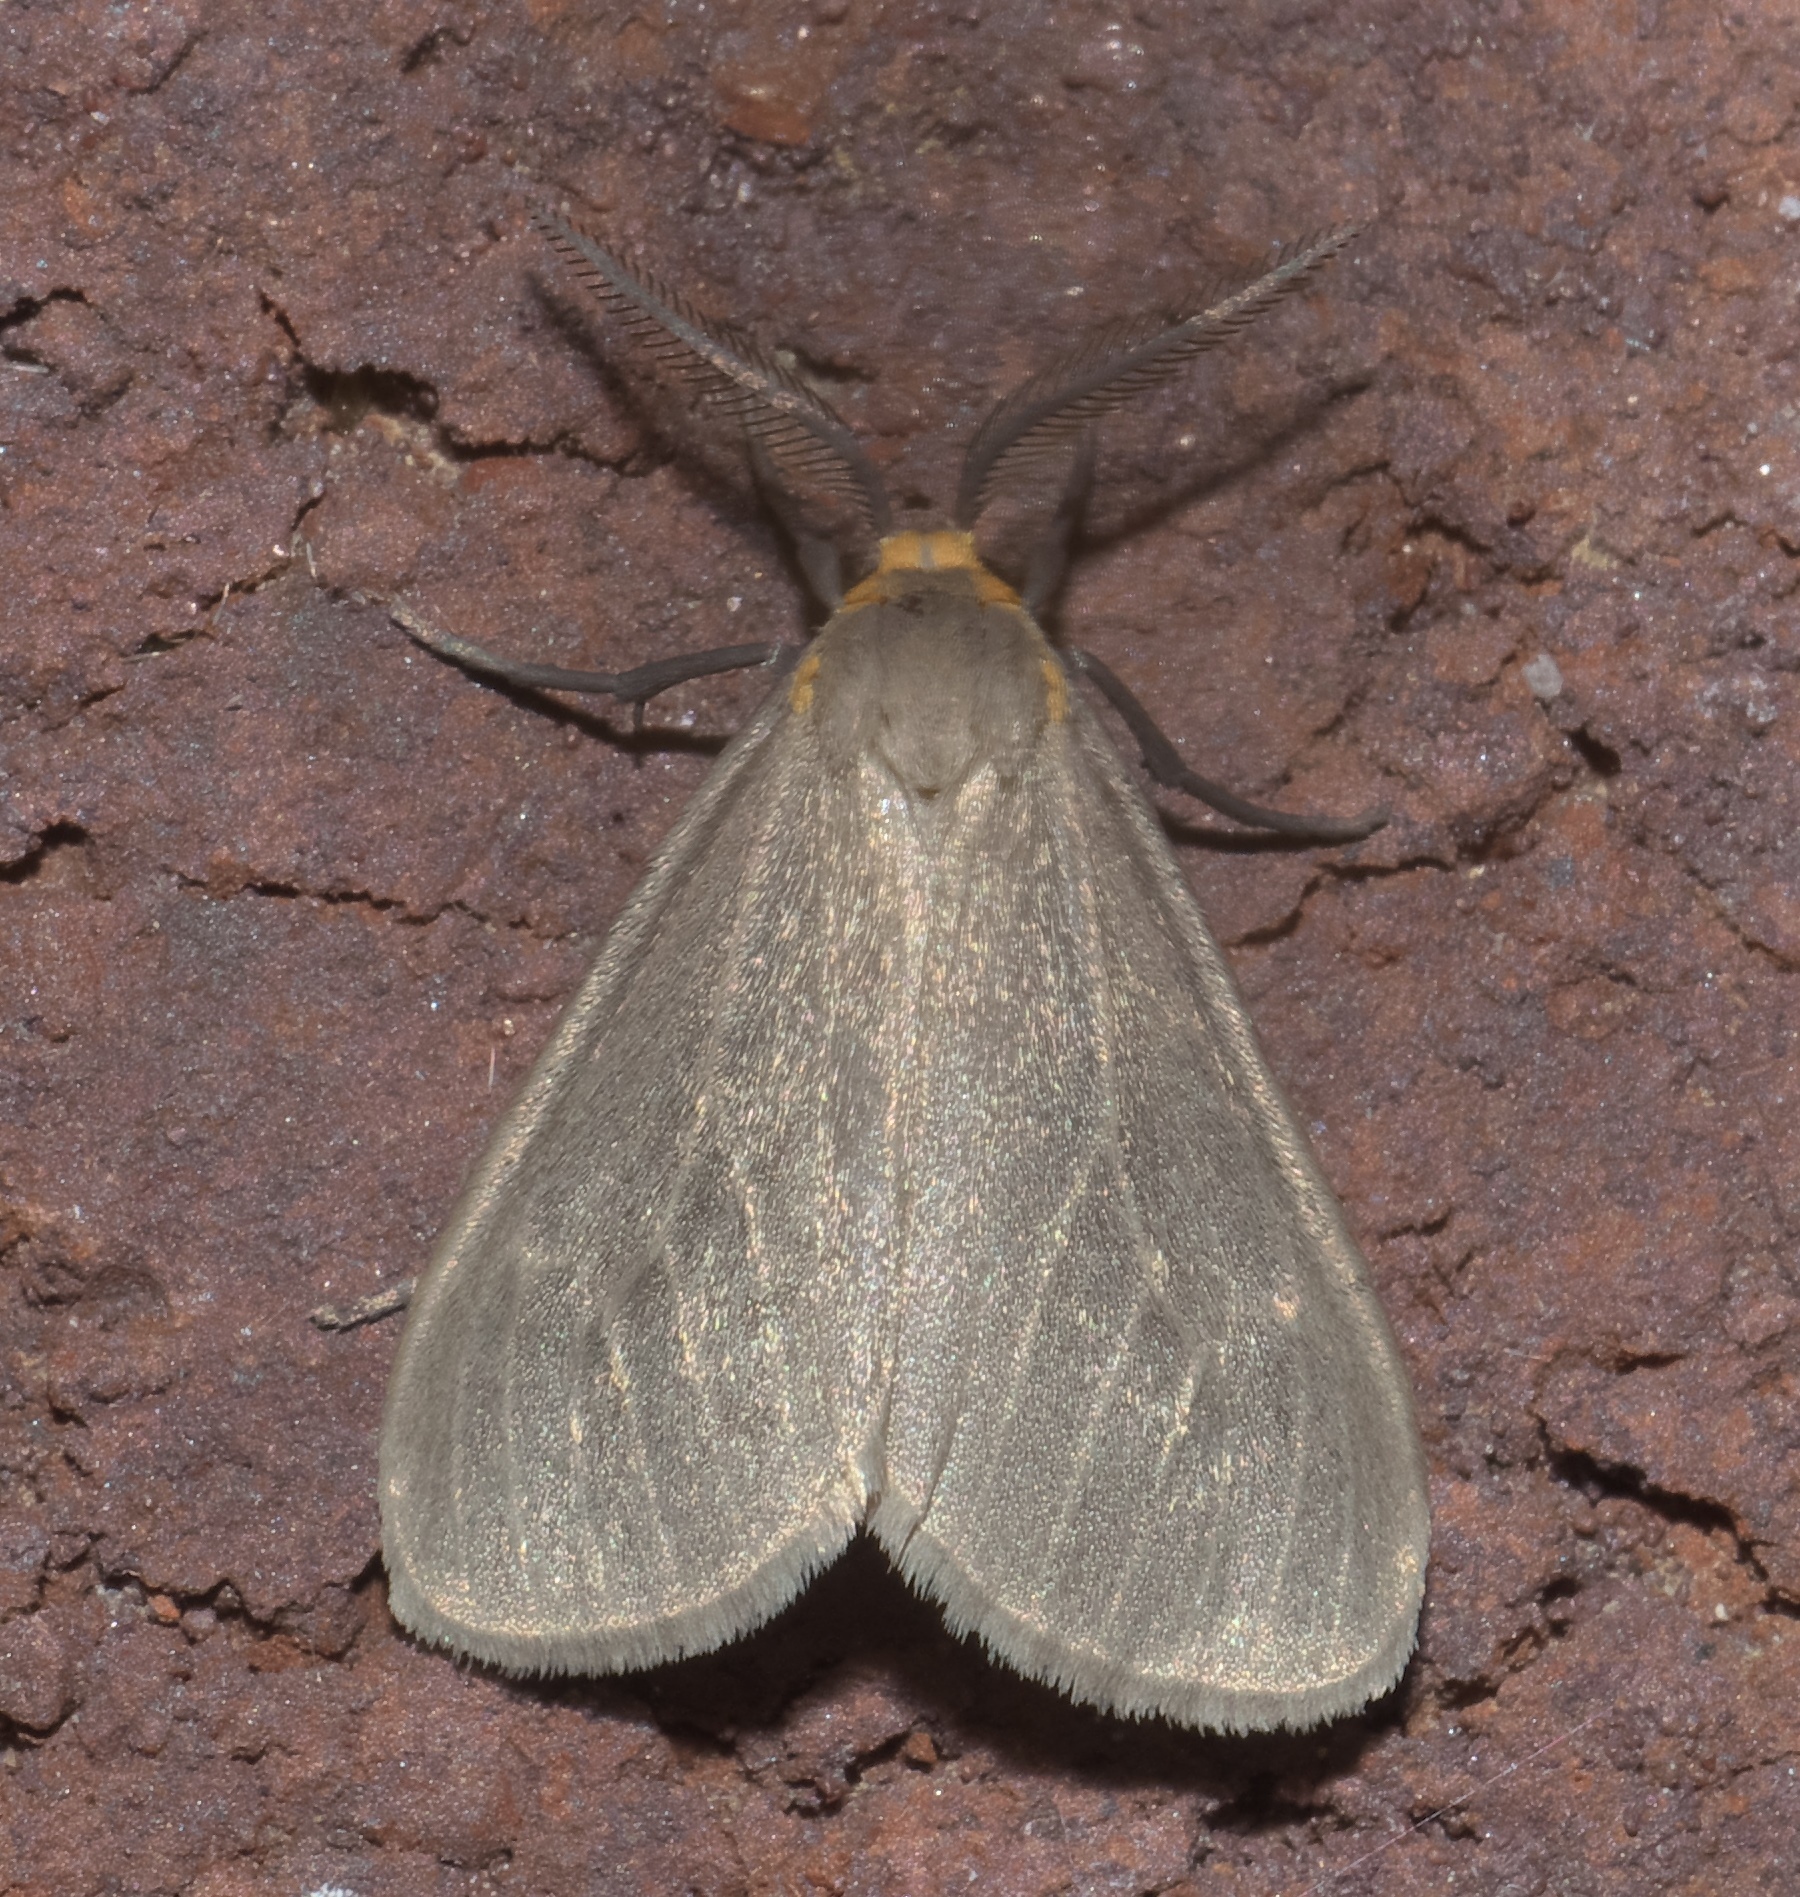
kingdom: Animalia
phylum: Arthropoda
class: Insecta
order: Lepidoptera
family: Erebidae
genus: Pagara
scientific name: Pagara simplex
